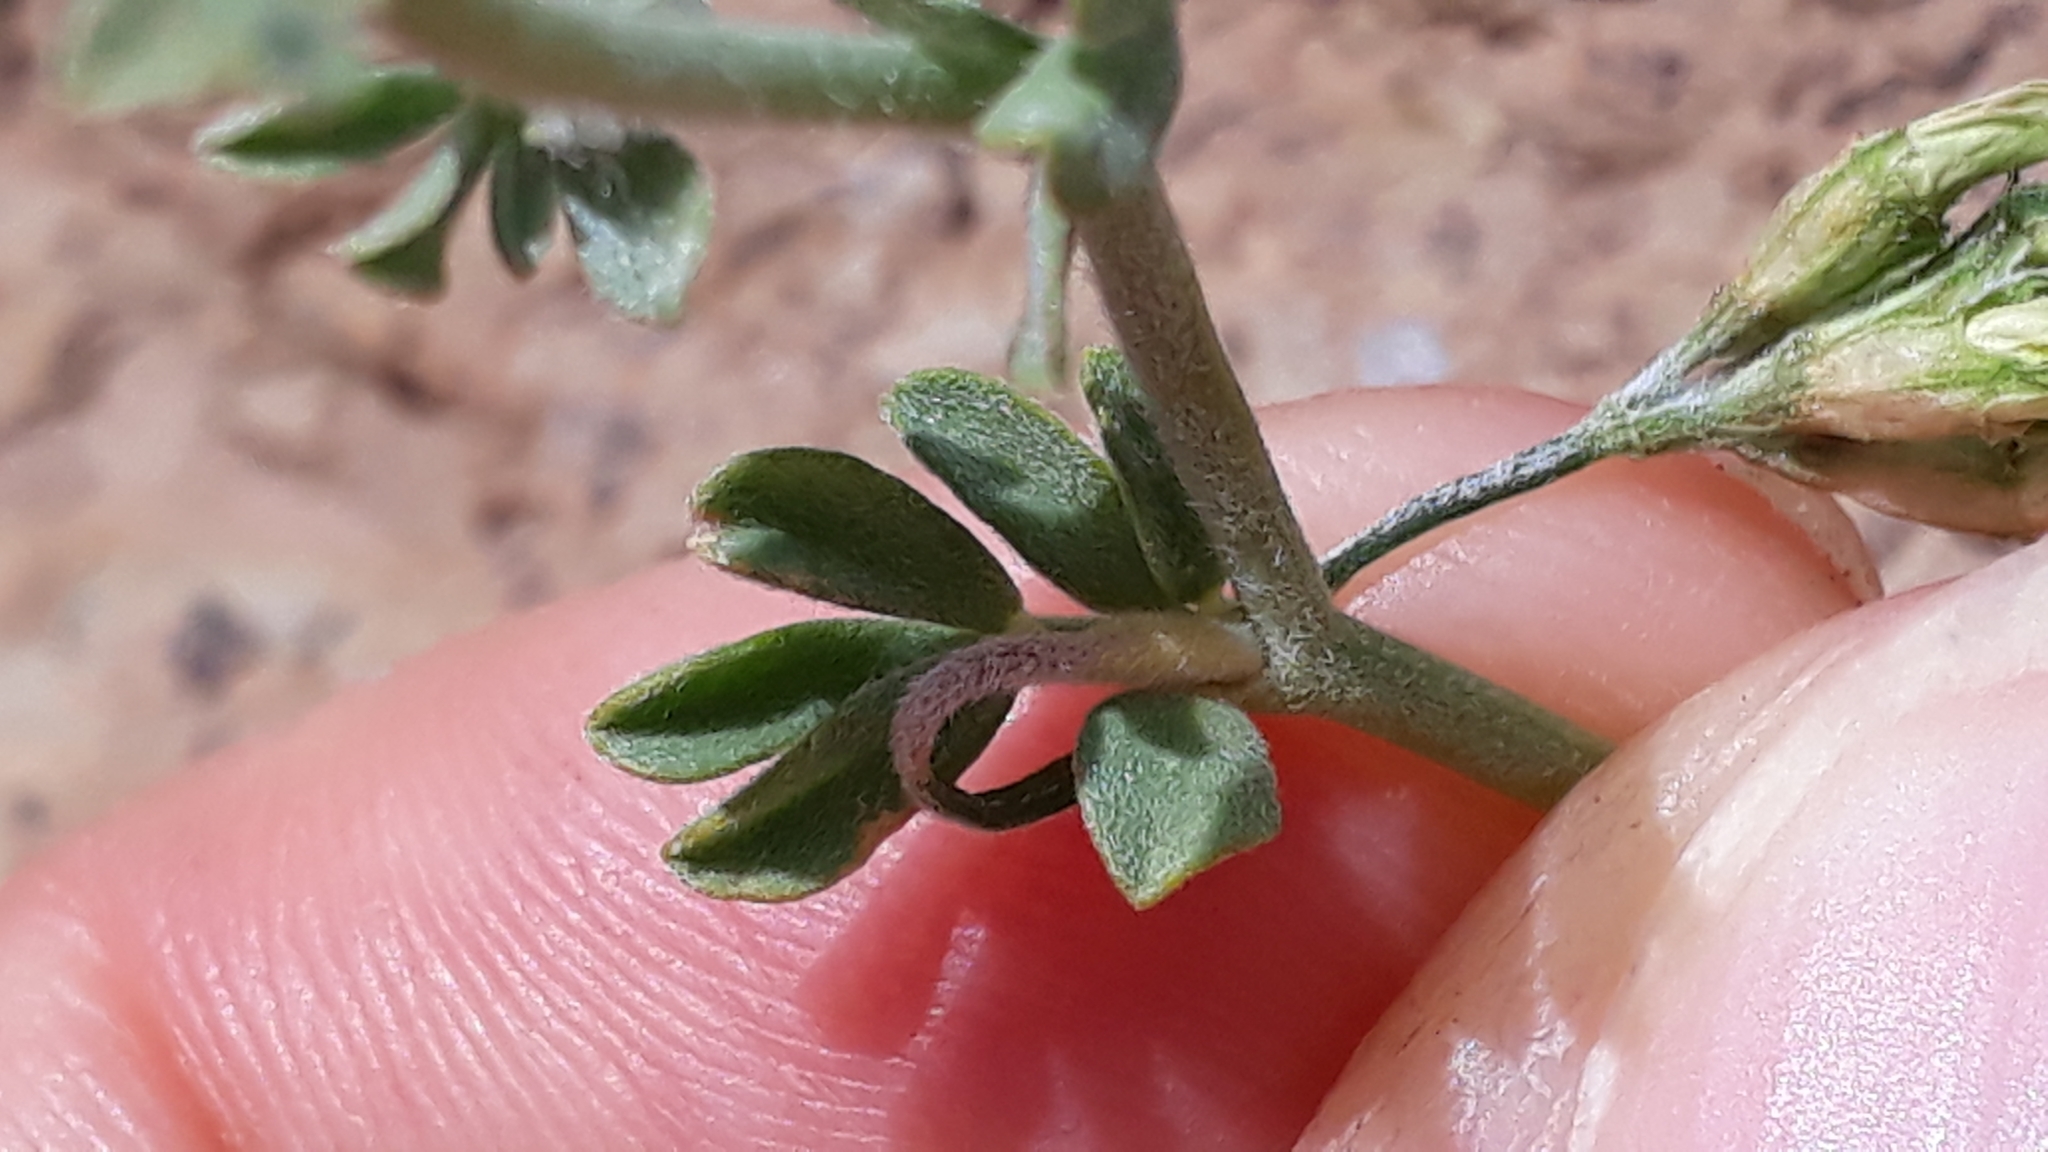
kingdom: Plantae
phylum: Tracheophyta
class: Magnoliopsida
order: Fabales
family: Fabaceae
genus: Lotus
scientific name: Lotus campylocladus
